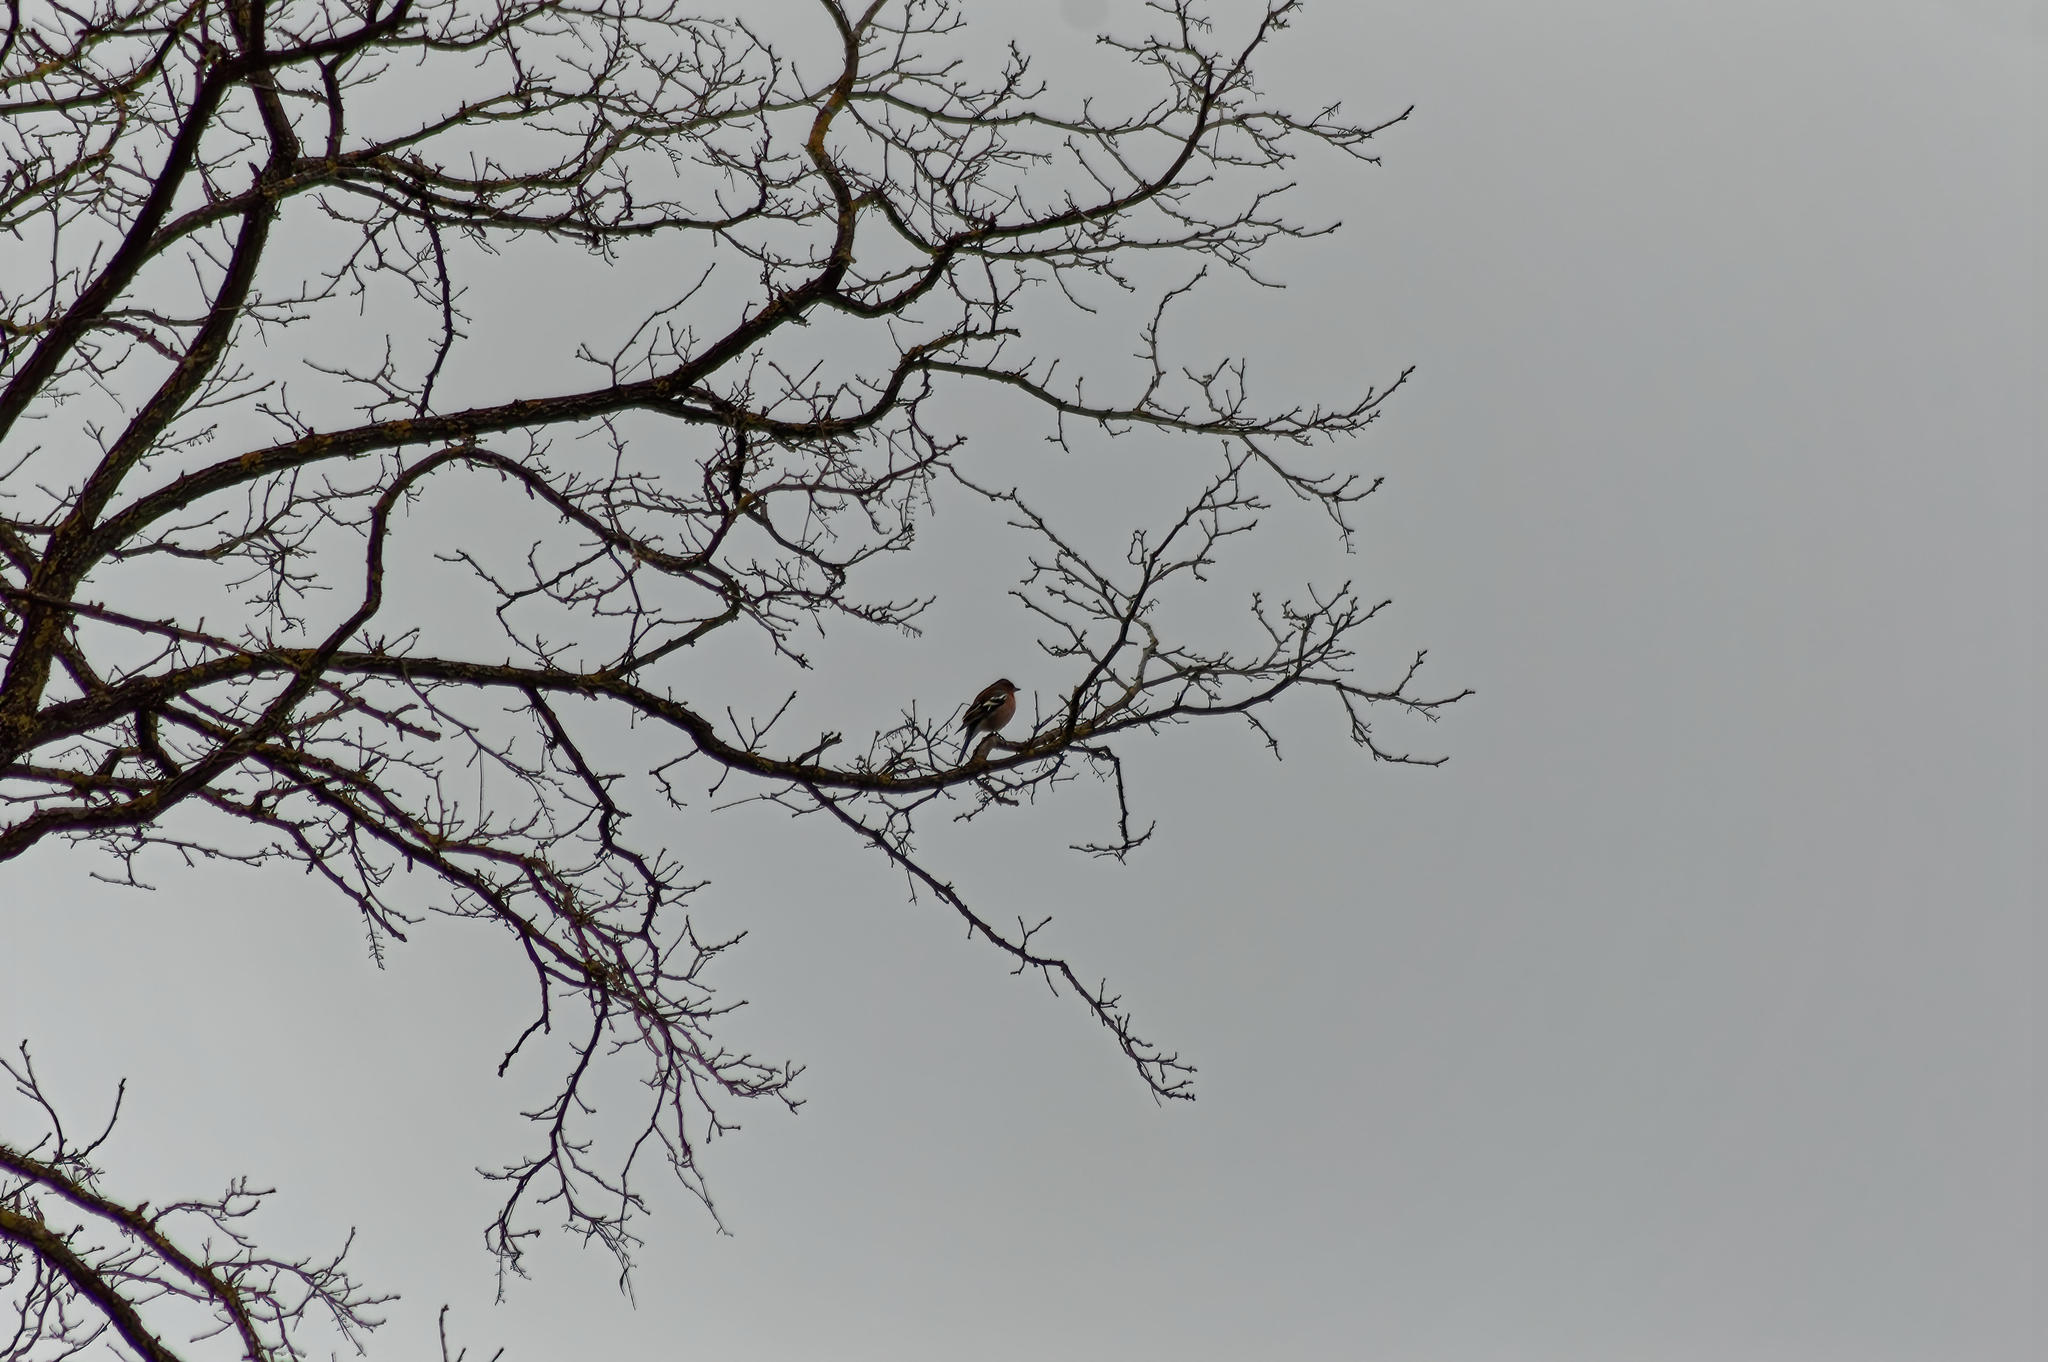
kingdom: Animalia
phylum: Chordata
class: Aves
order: Passeriformes
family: Fringillidae
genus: Fringilla
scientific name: Fringilla coelebs
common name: Common chaffinch
